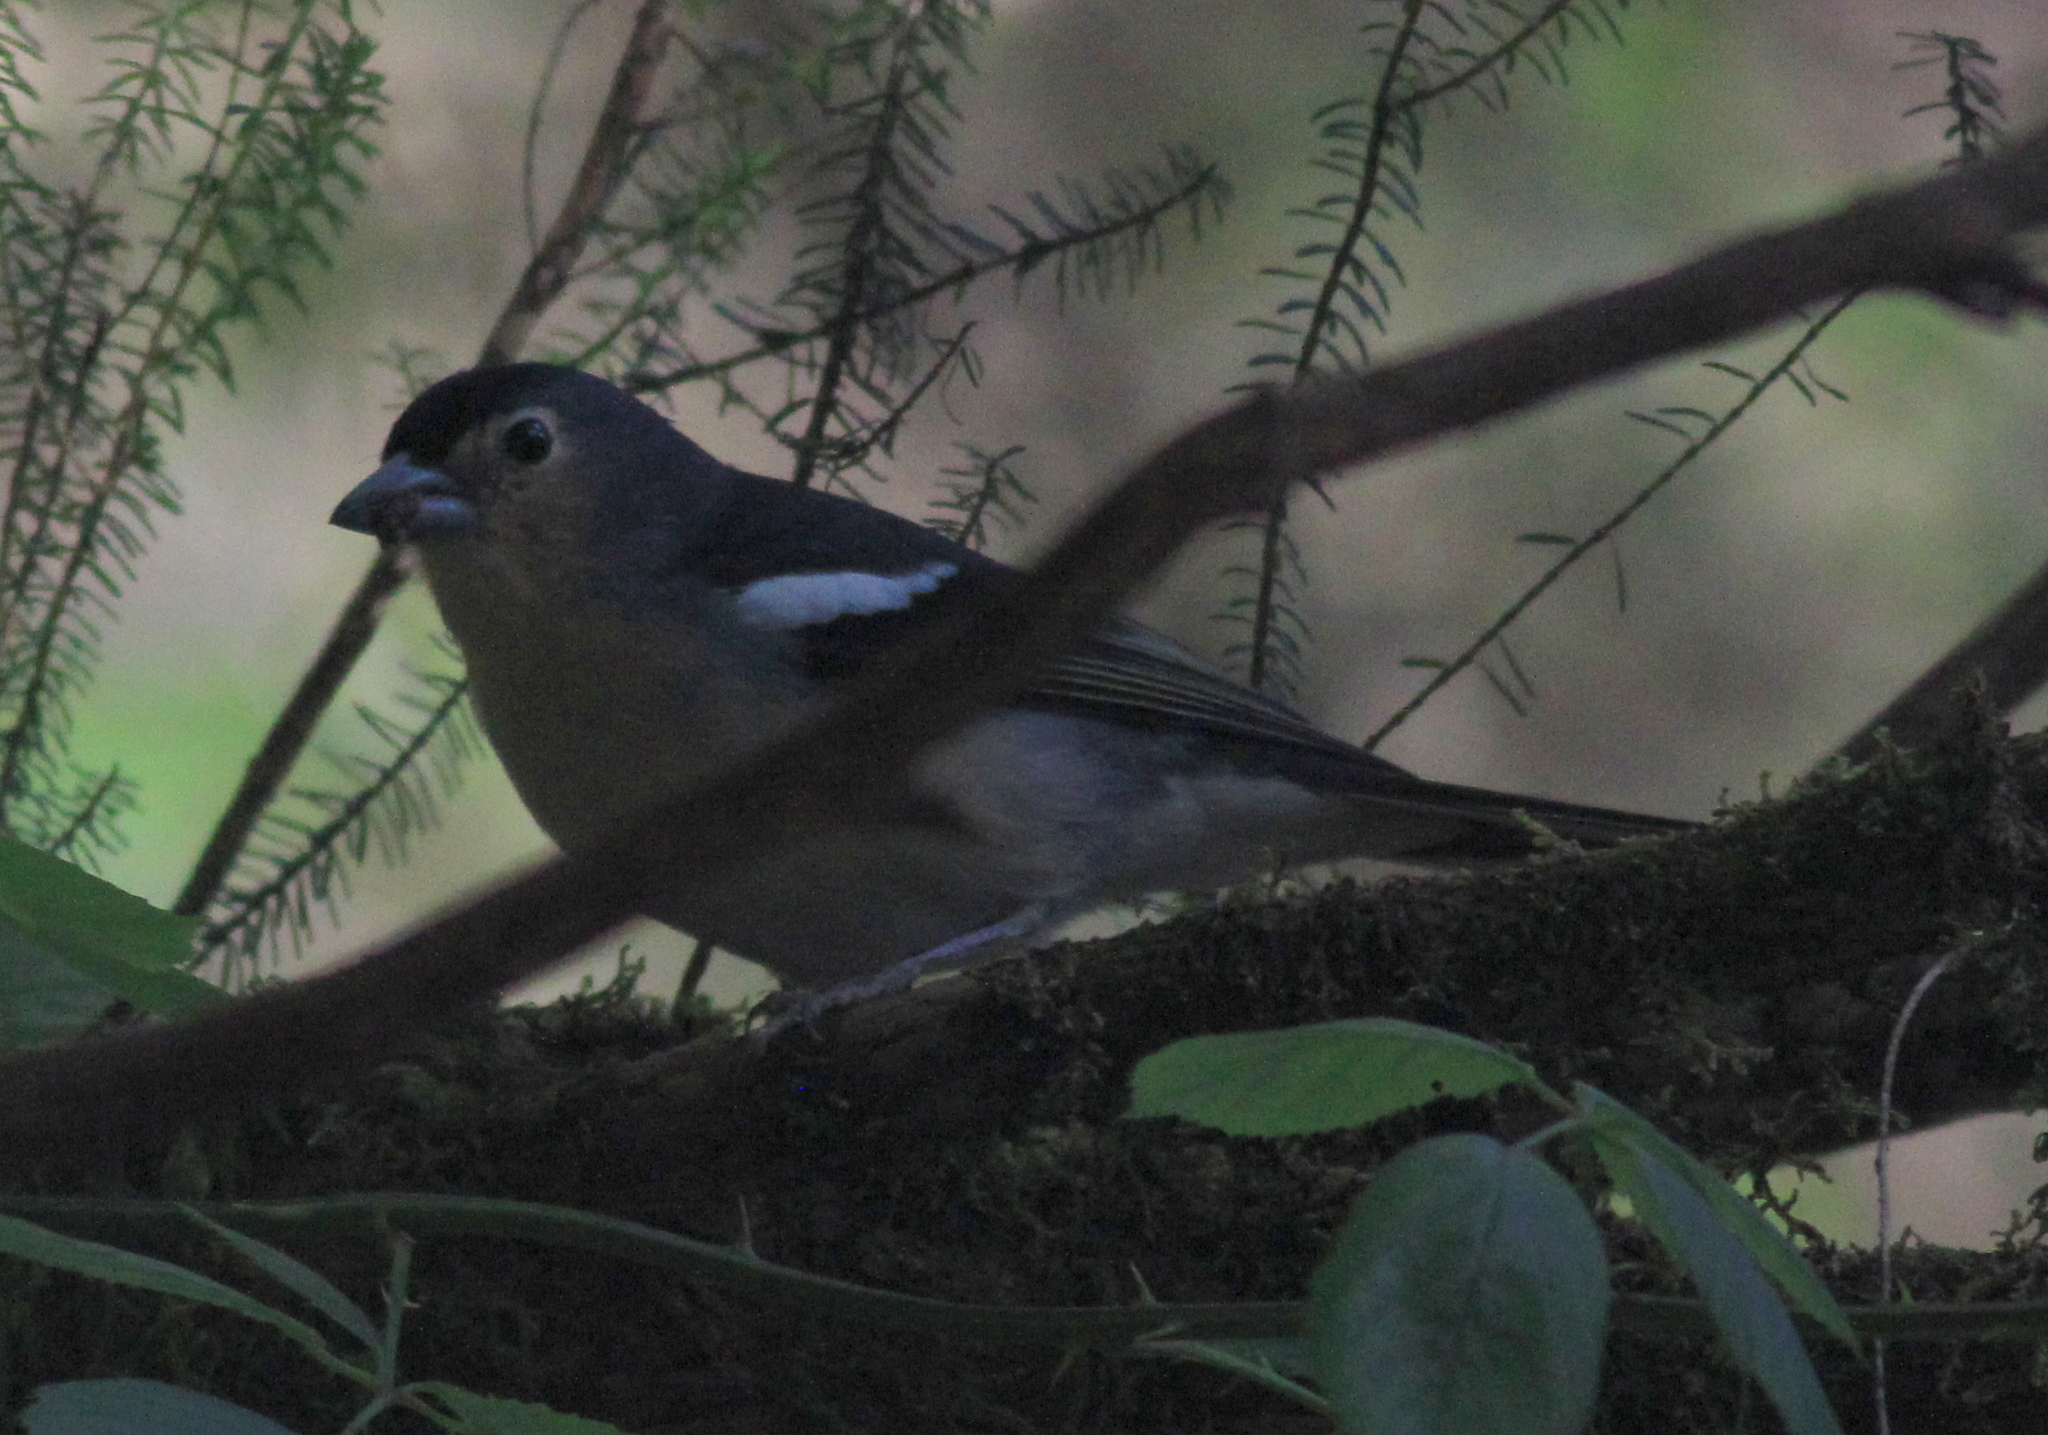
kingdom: Animalia
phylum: Chordata
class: Aves
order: Passeriformes
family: Fringillidae
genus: Fringilla
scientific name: Fringilla canariensis
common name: Canary islands chaffinch
